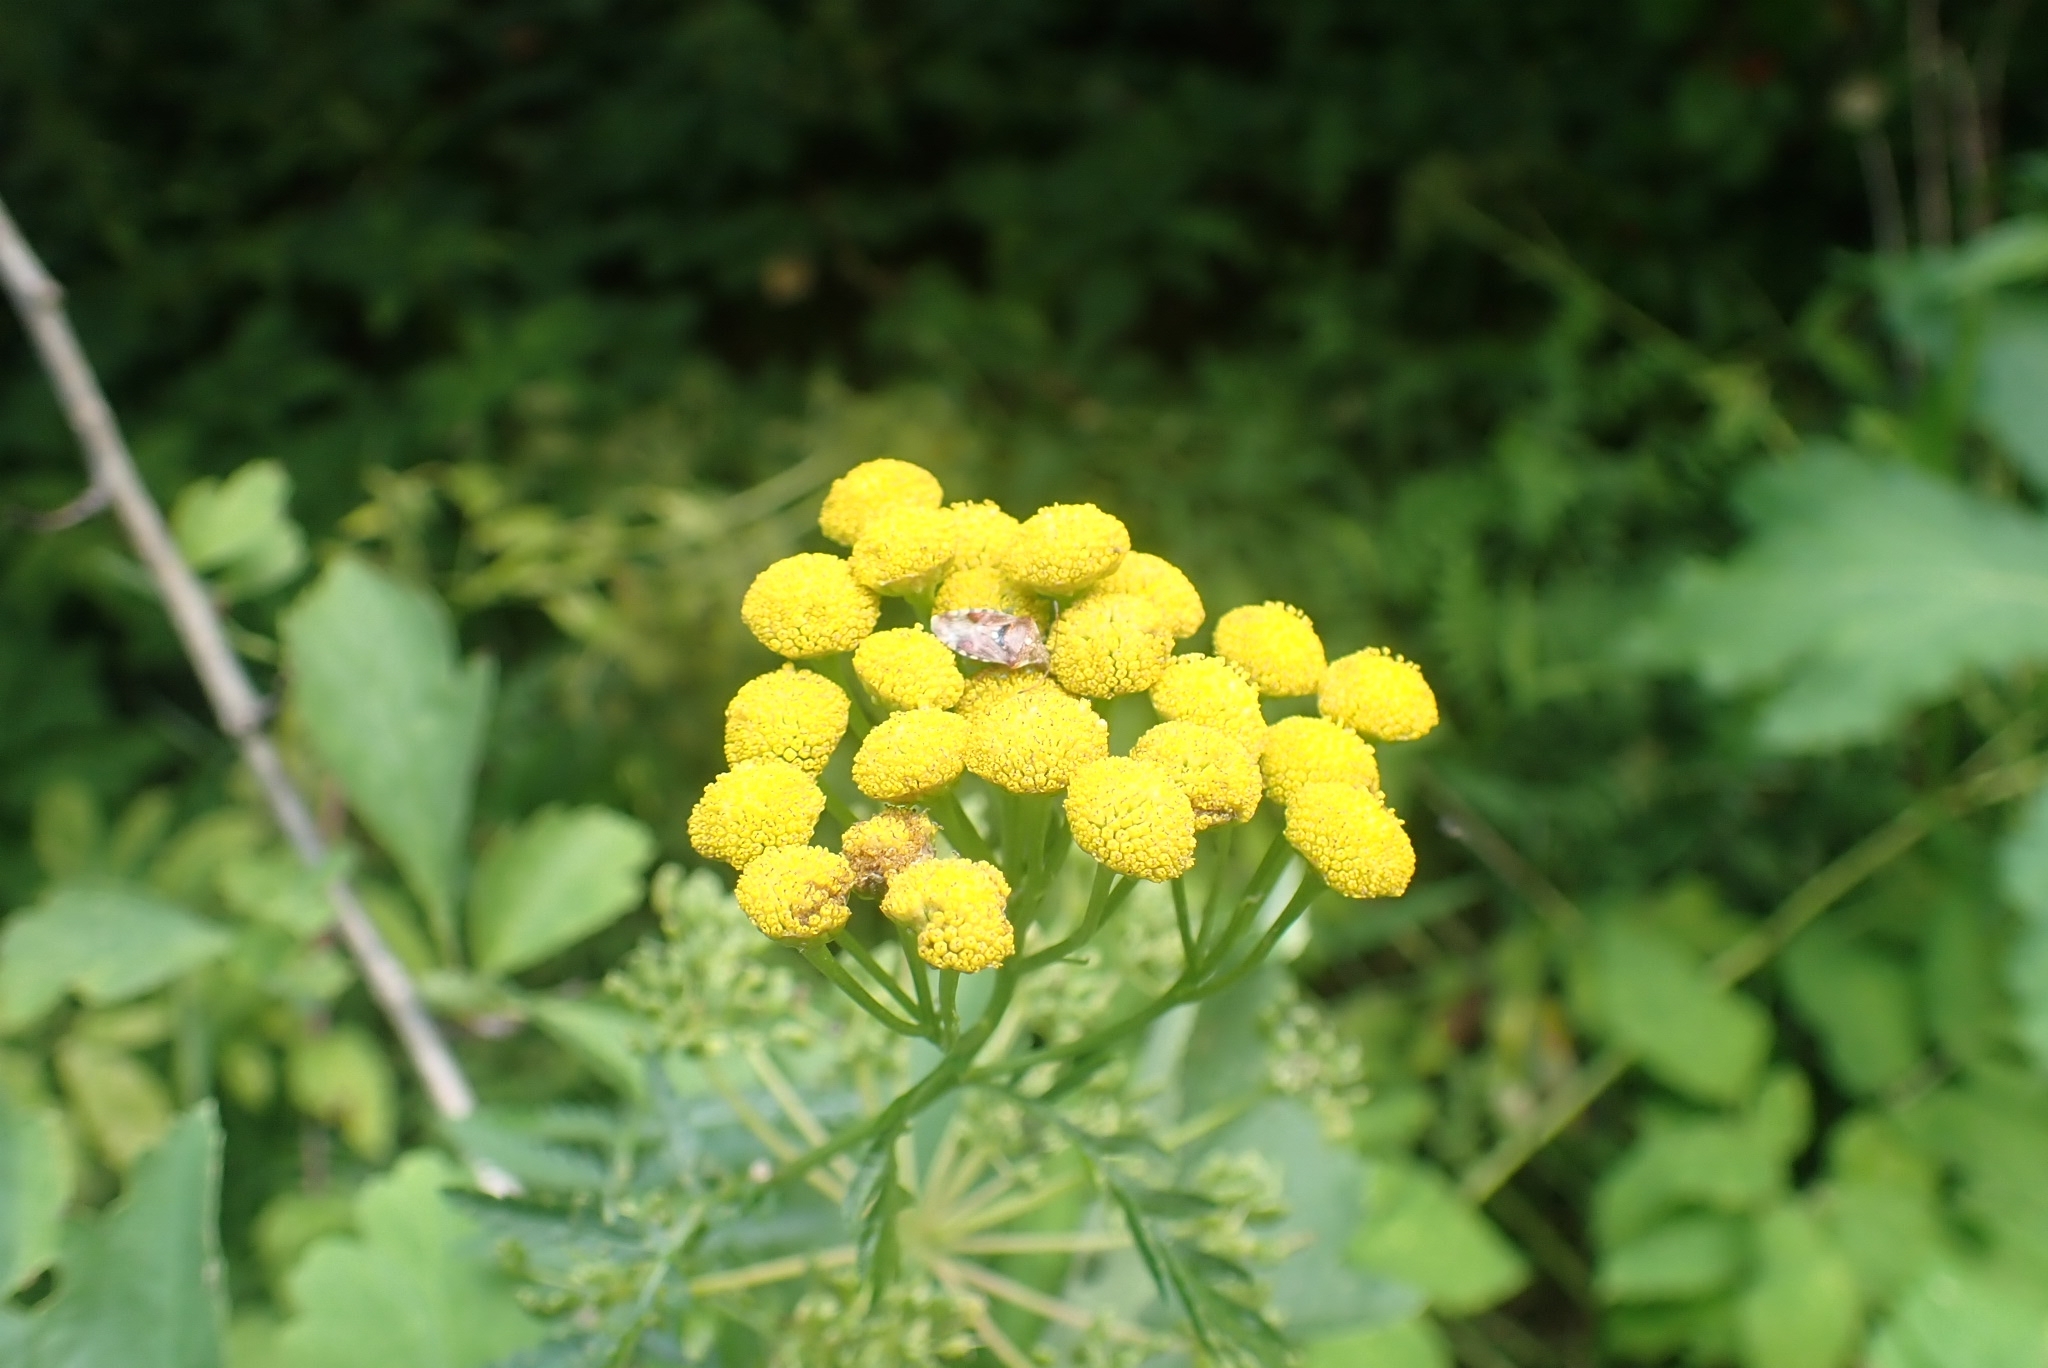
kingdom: Plantae
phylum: Tracheophyta
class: Magnoliopsida
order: Asterales
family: Asteraceae
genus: Tanacetum
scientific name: Tanacetum vulgare
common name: Common tansy
